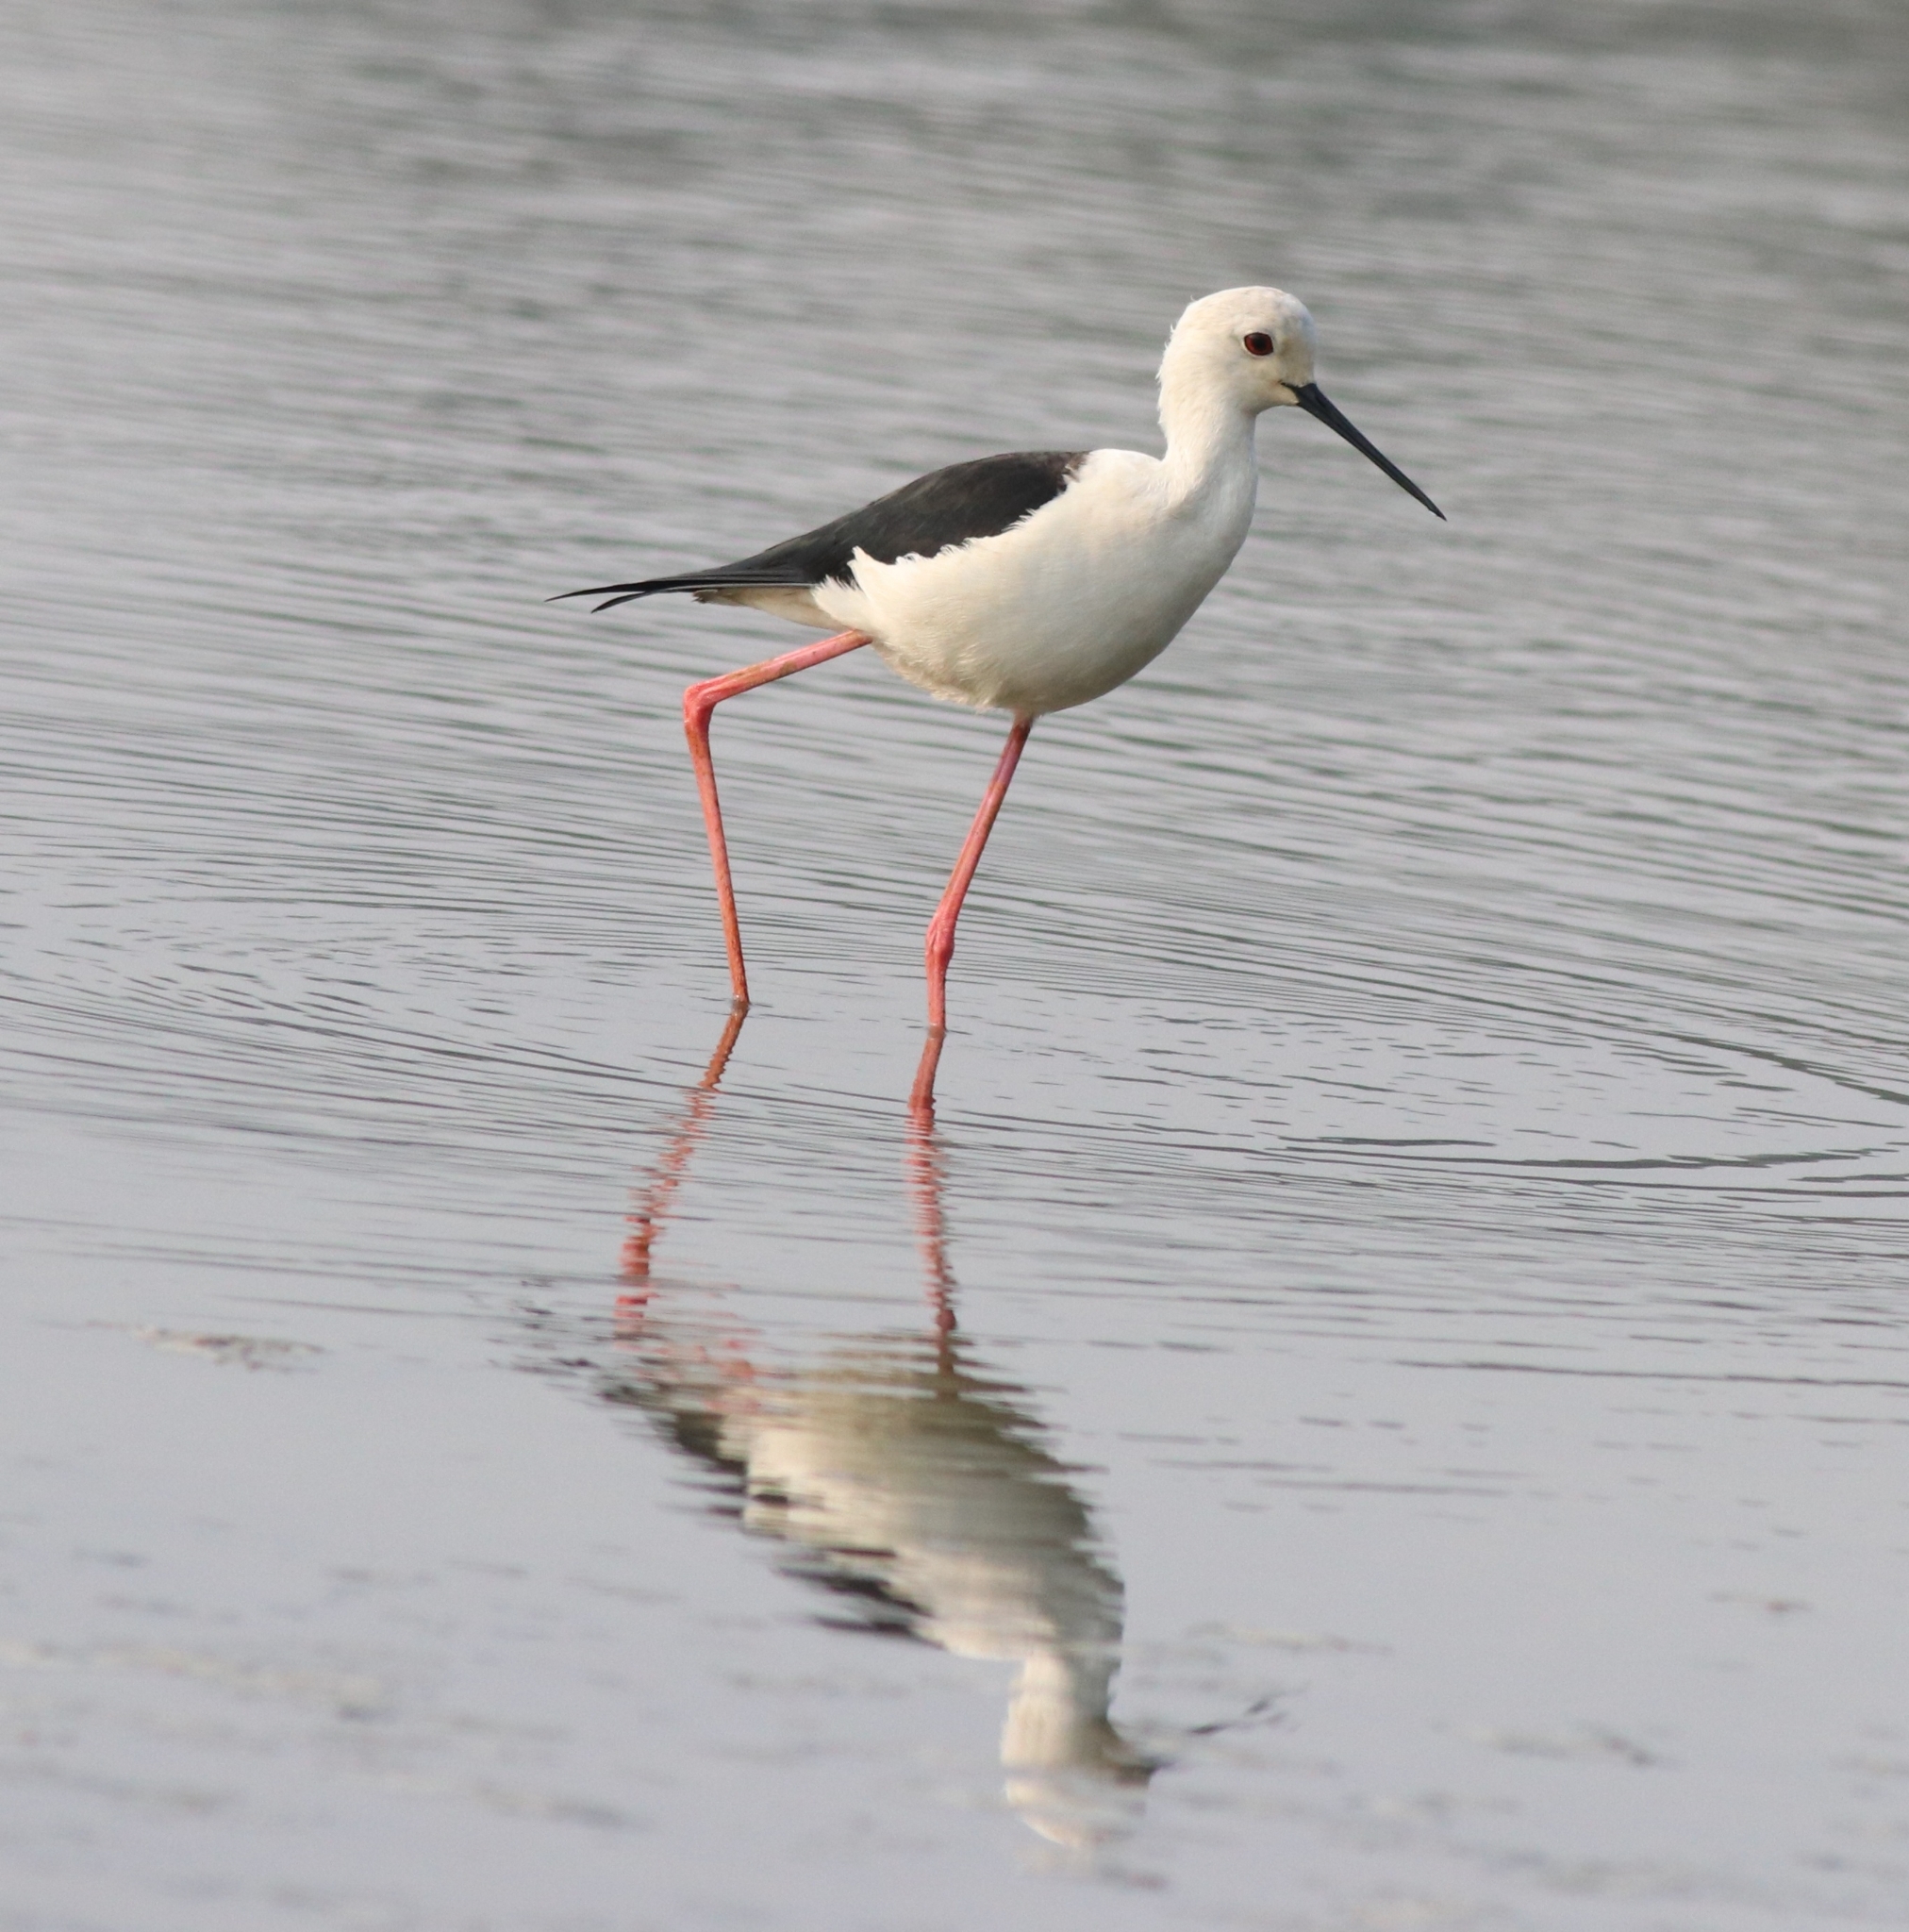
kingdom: Animalia
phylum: Chordata
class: Aves
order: Charadriiformes
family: Recurvirostridae
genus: Himantopus
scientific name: Himantopus himantopus
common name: Black-winged stilt
